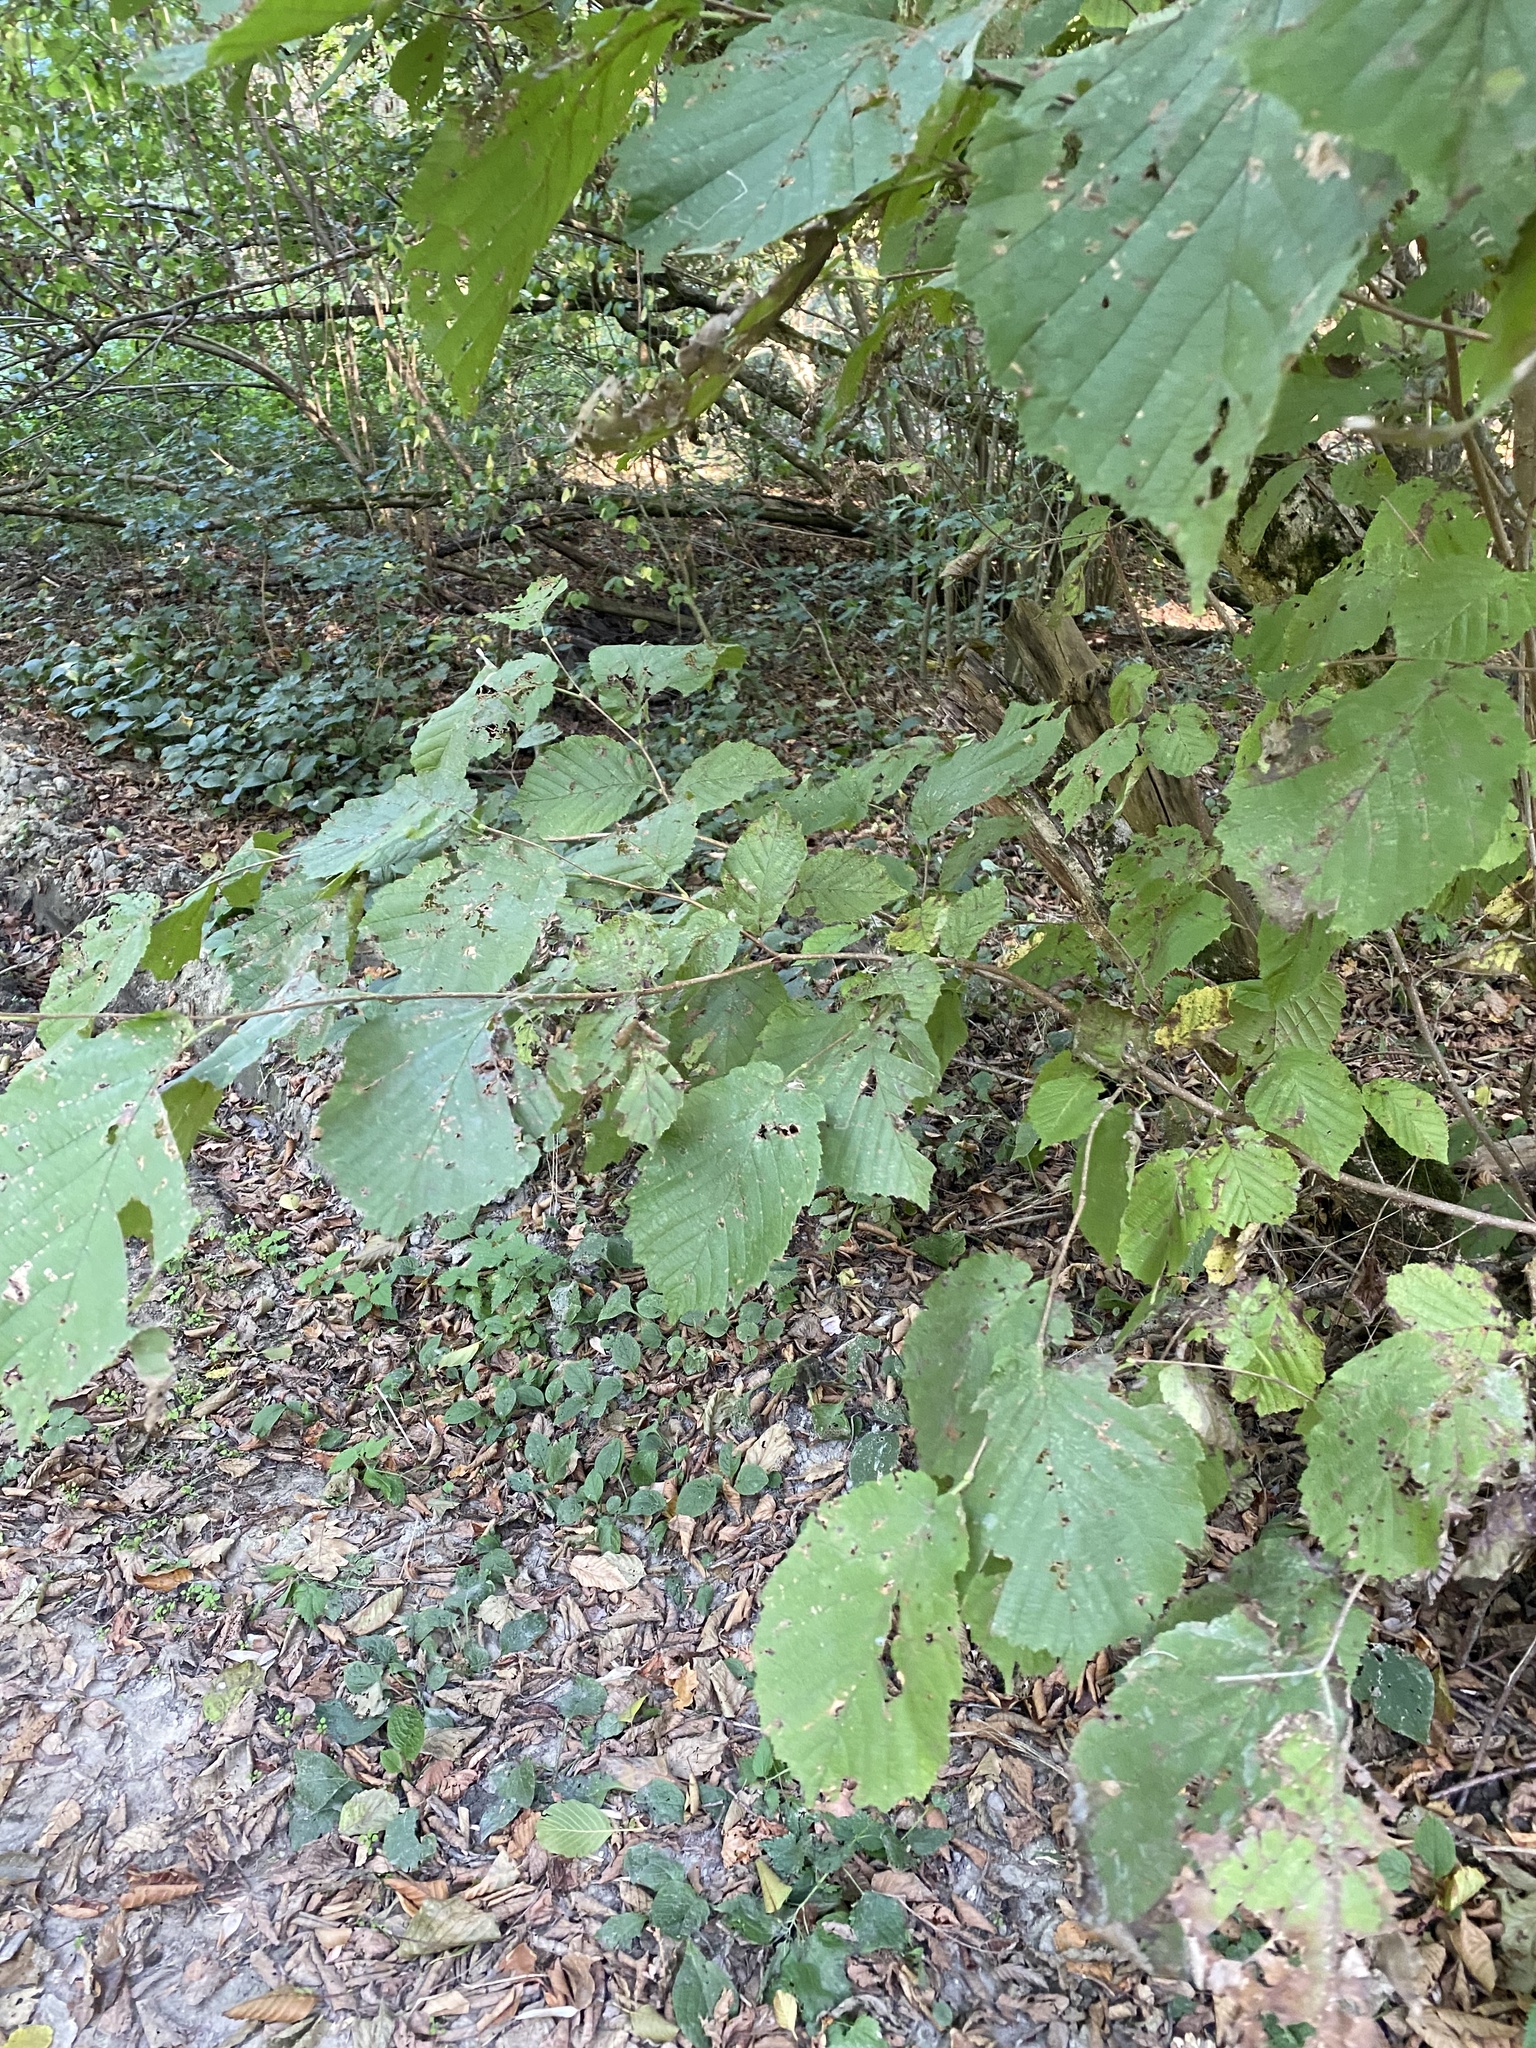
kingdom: Plantae
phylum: Tracheophyta
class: Magnoliopsida
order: Fagales
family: Betulaceae
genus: Corylus
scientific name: Corylus avellana
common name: European hazel
